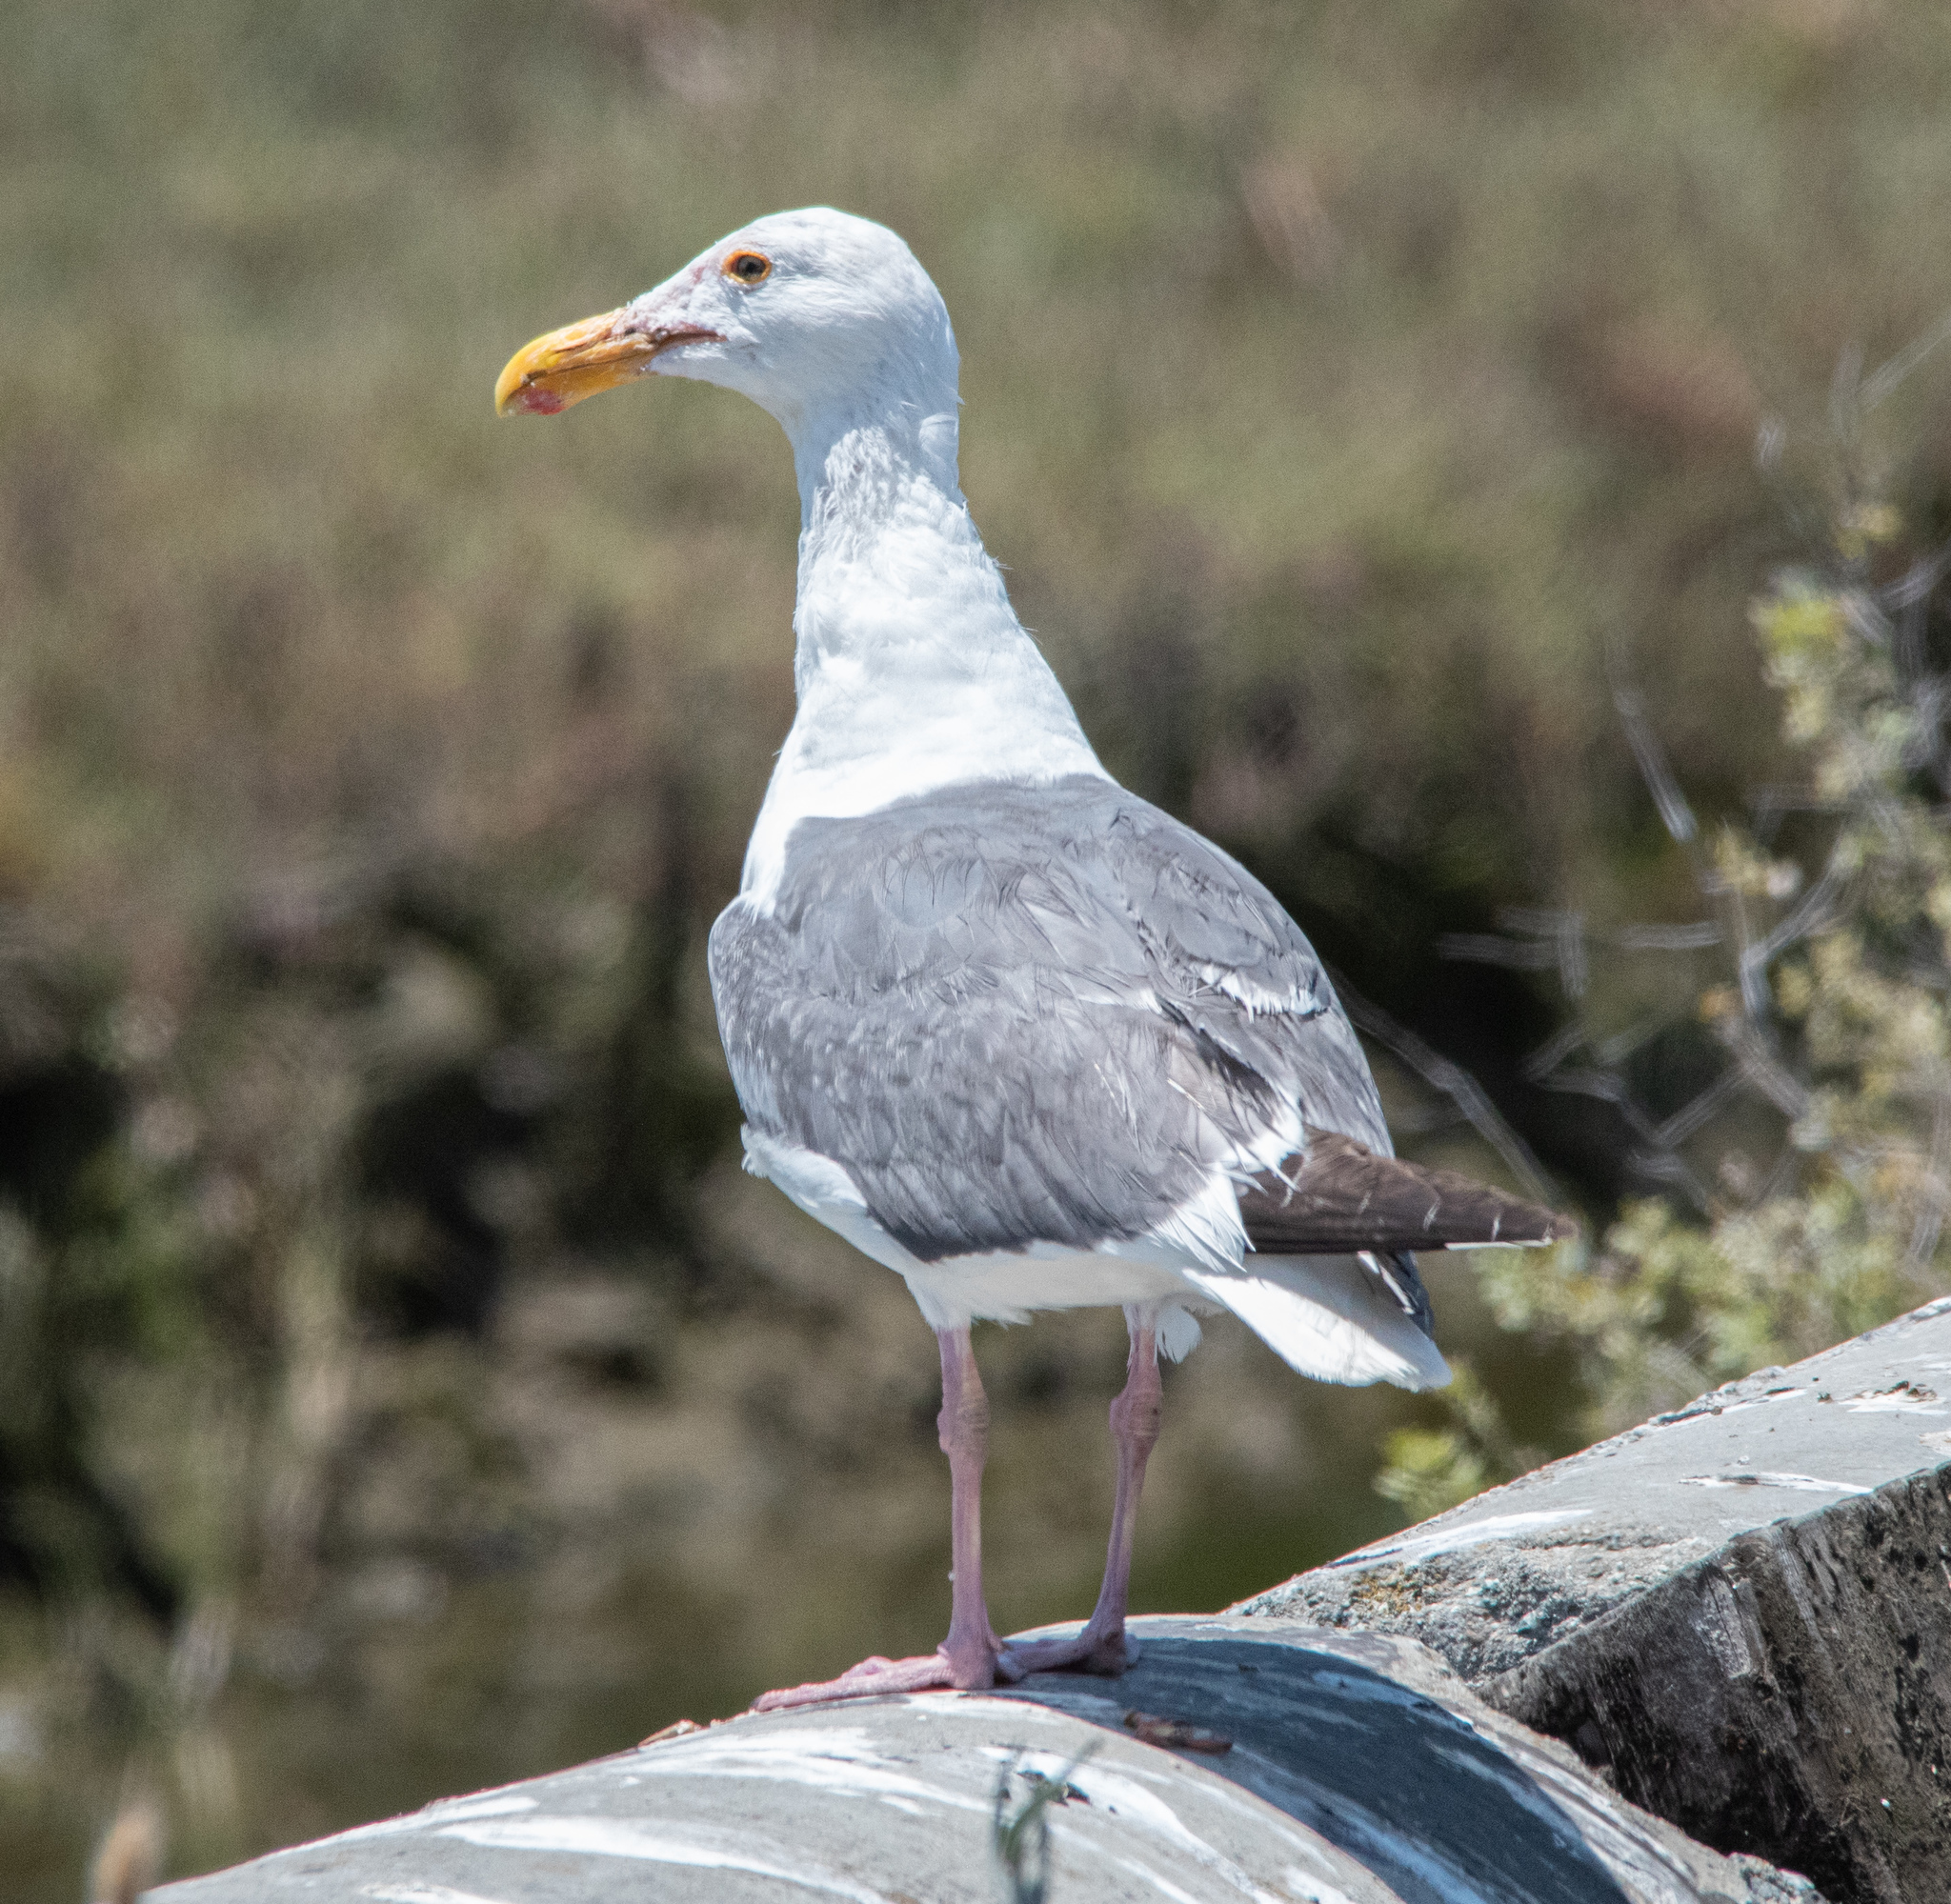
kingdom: Animalia
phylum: Chordata
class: Aves
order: Charadriiformes
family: Laridae
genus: Larus
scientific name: Larus occidentalis
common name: Western gull
